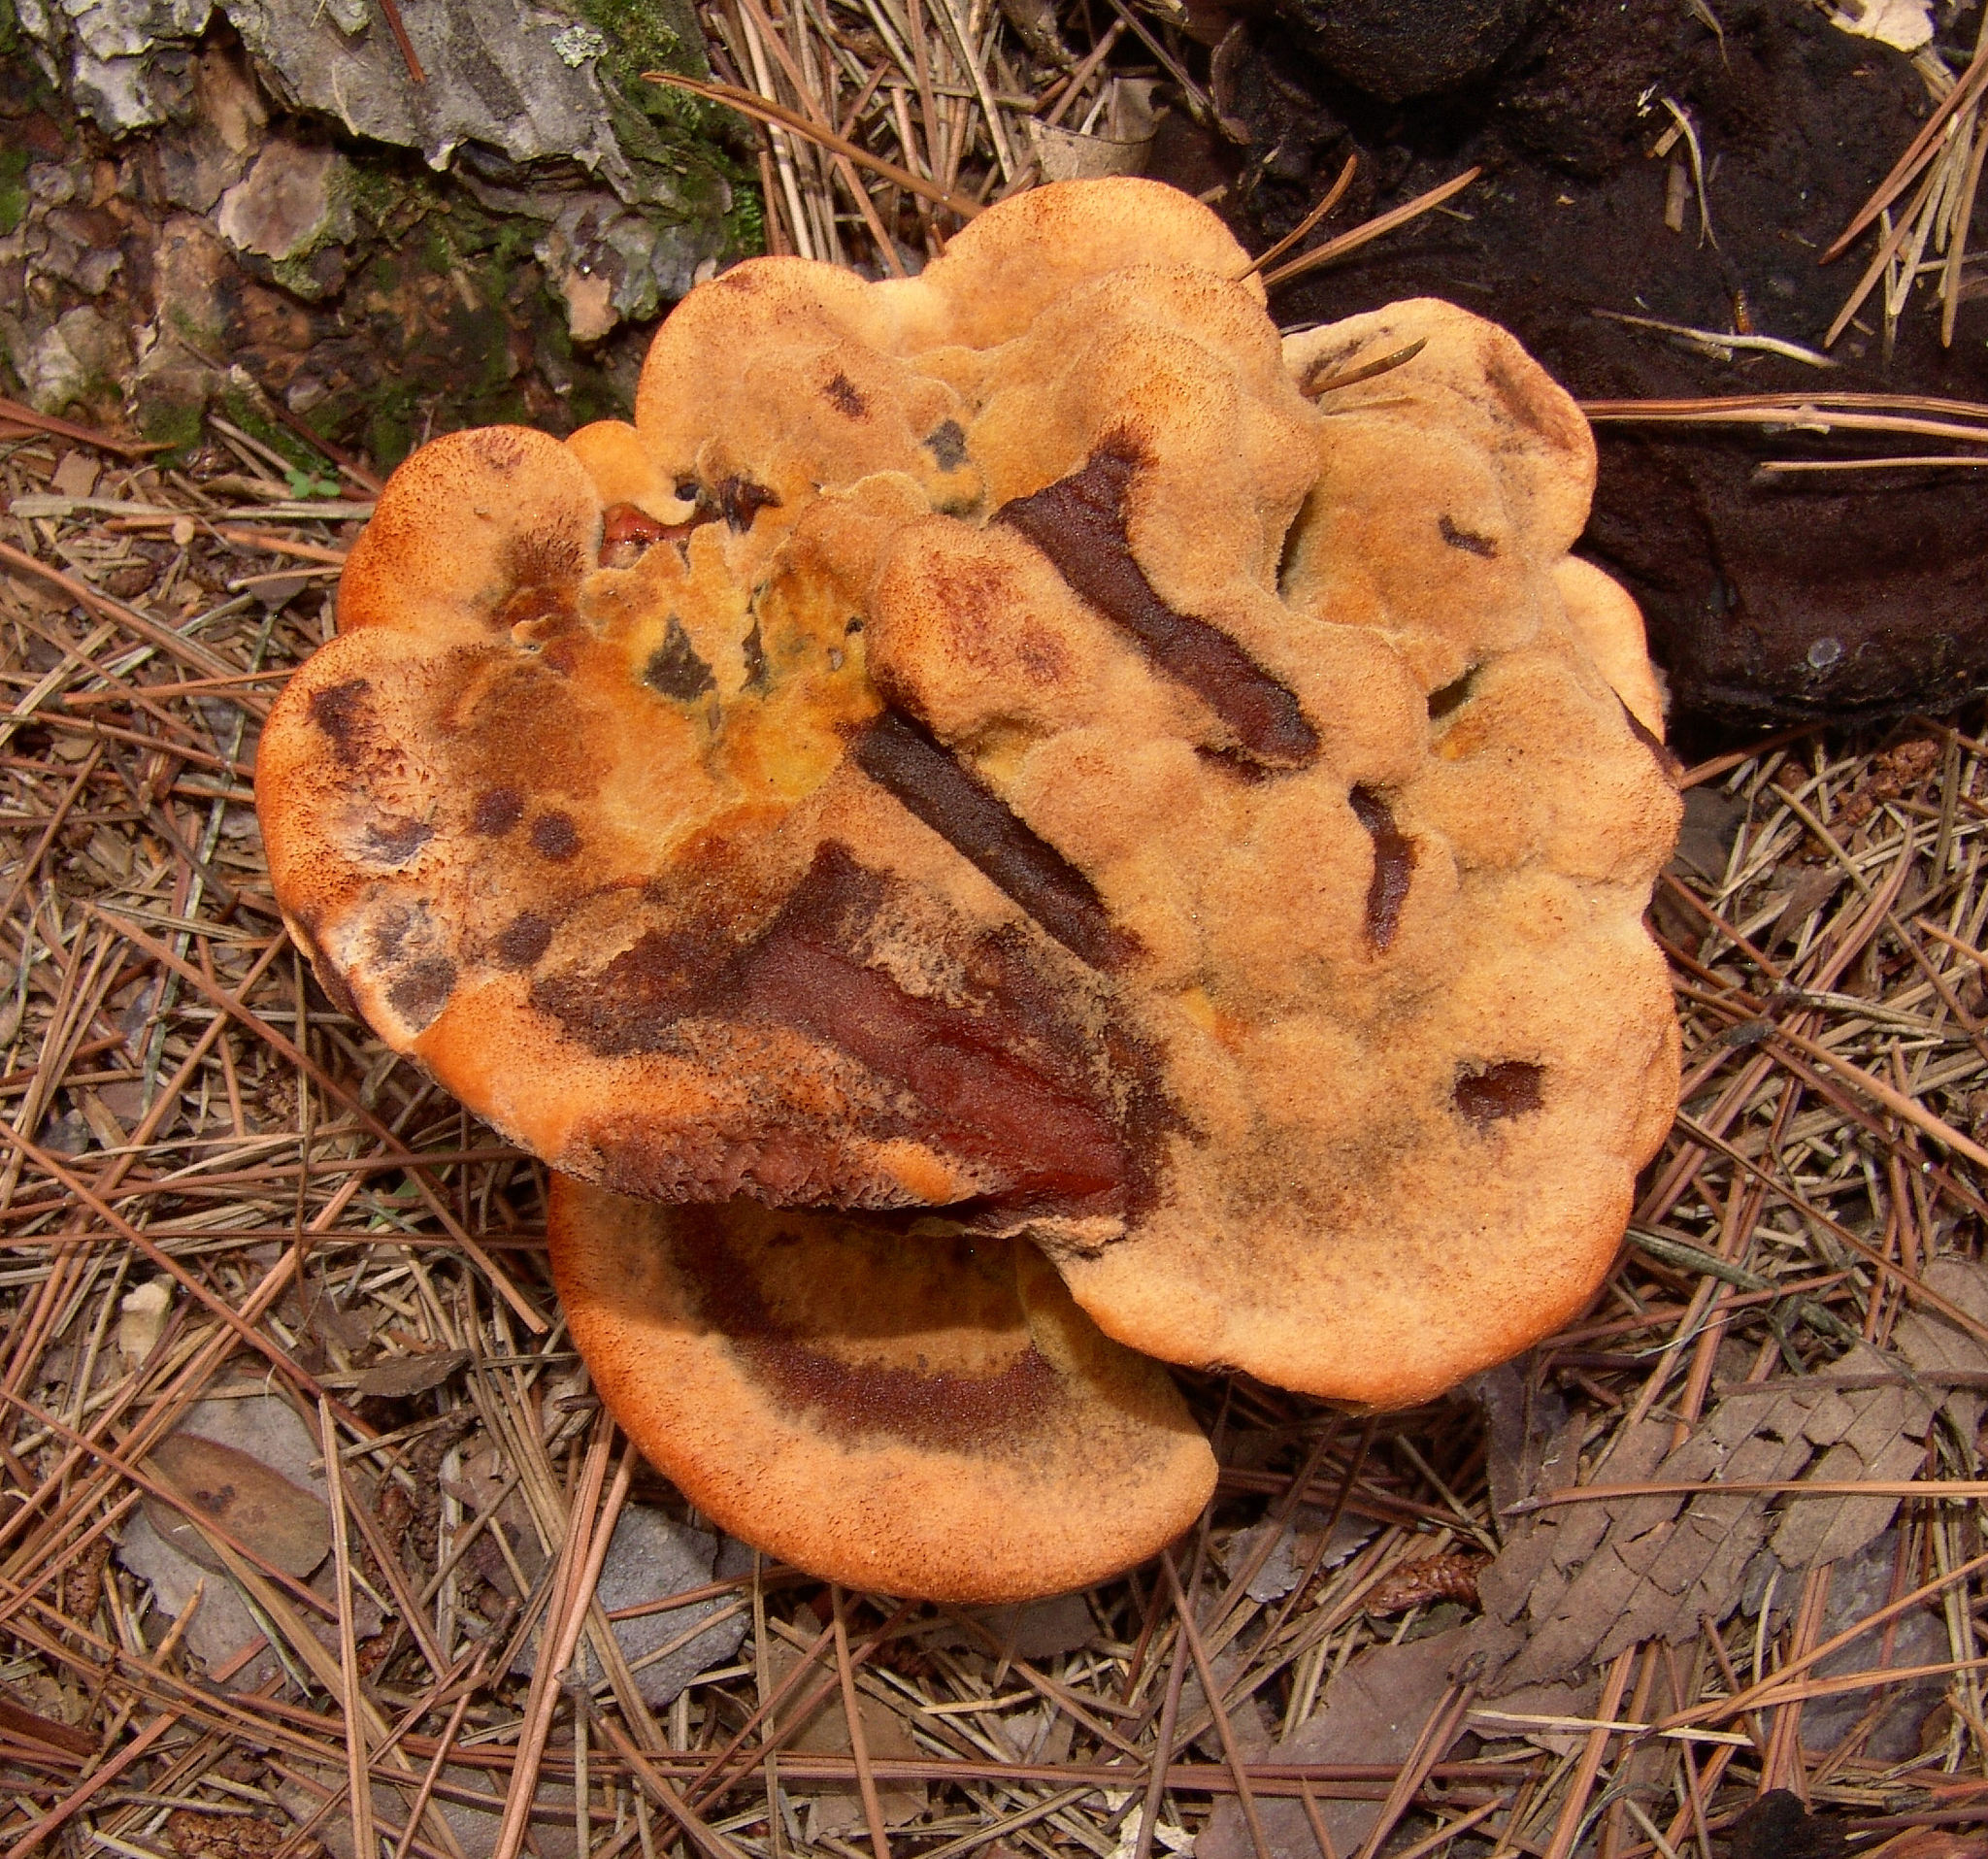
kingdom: Fungi
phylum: Basidiomycota
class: Agaricomycetes
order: Polyporales
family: Laetiporaceae
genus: Phaeolus
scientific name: Phaeolus schweinitzii
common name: Dyer's mazegill
